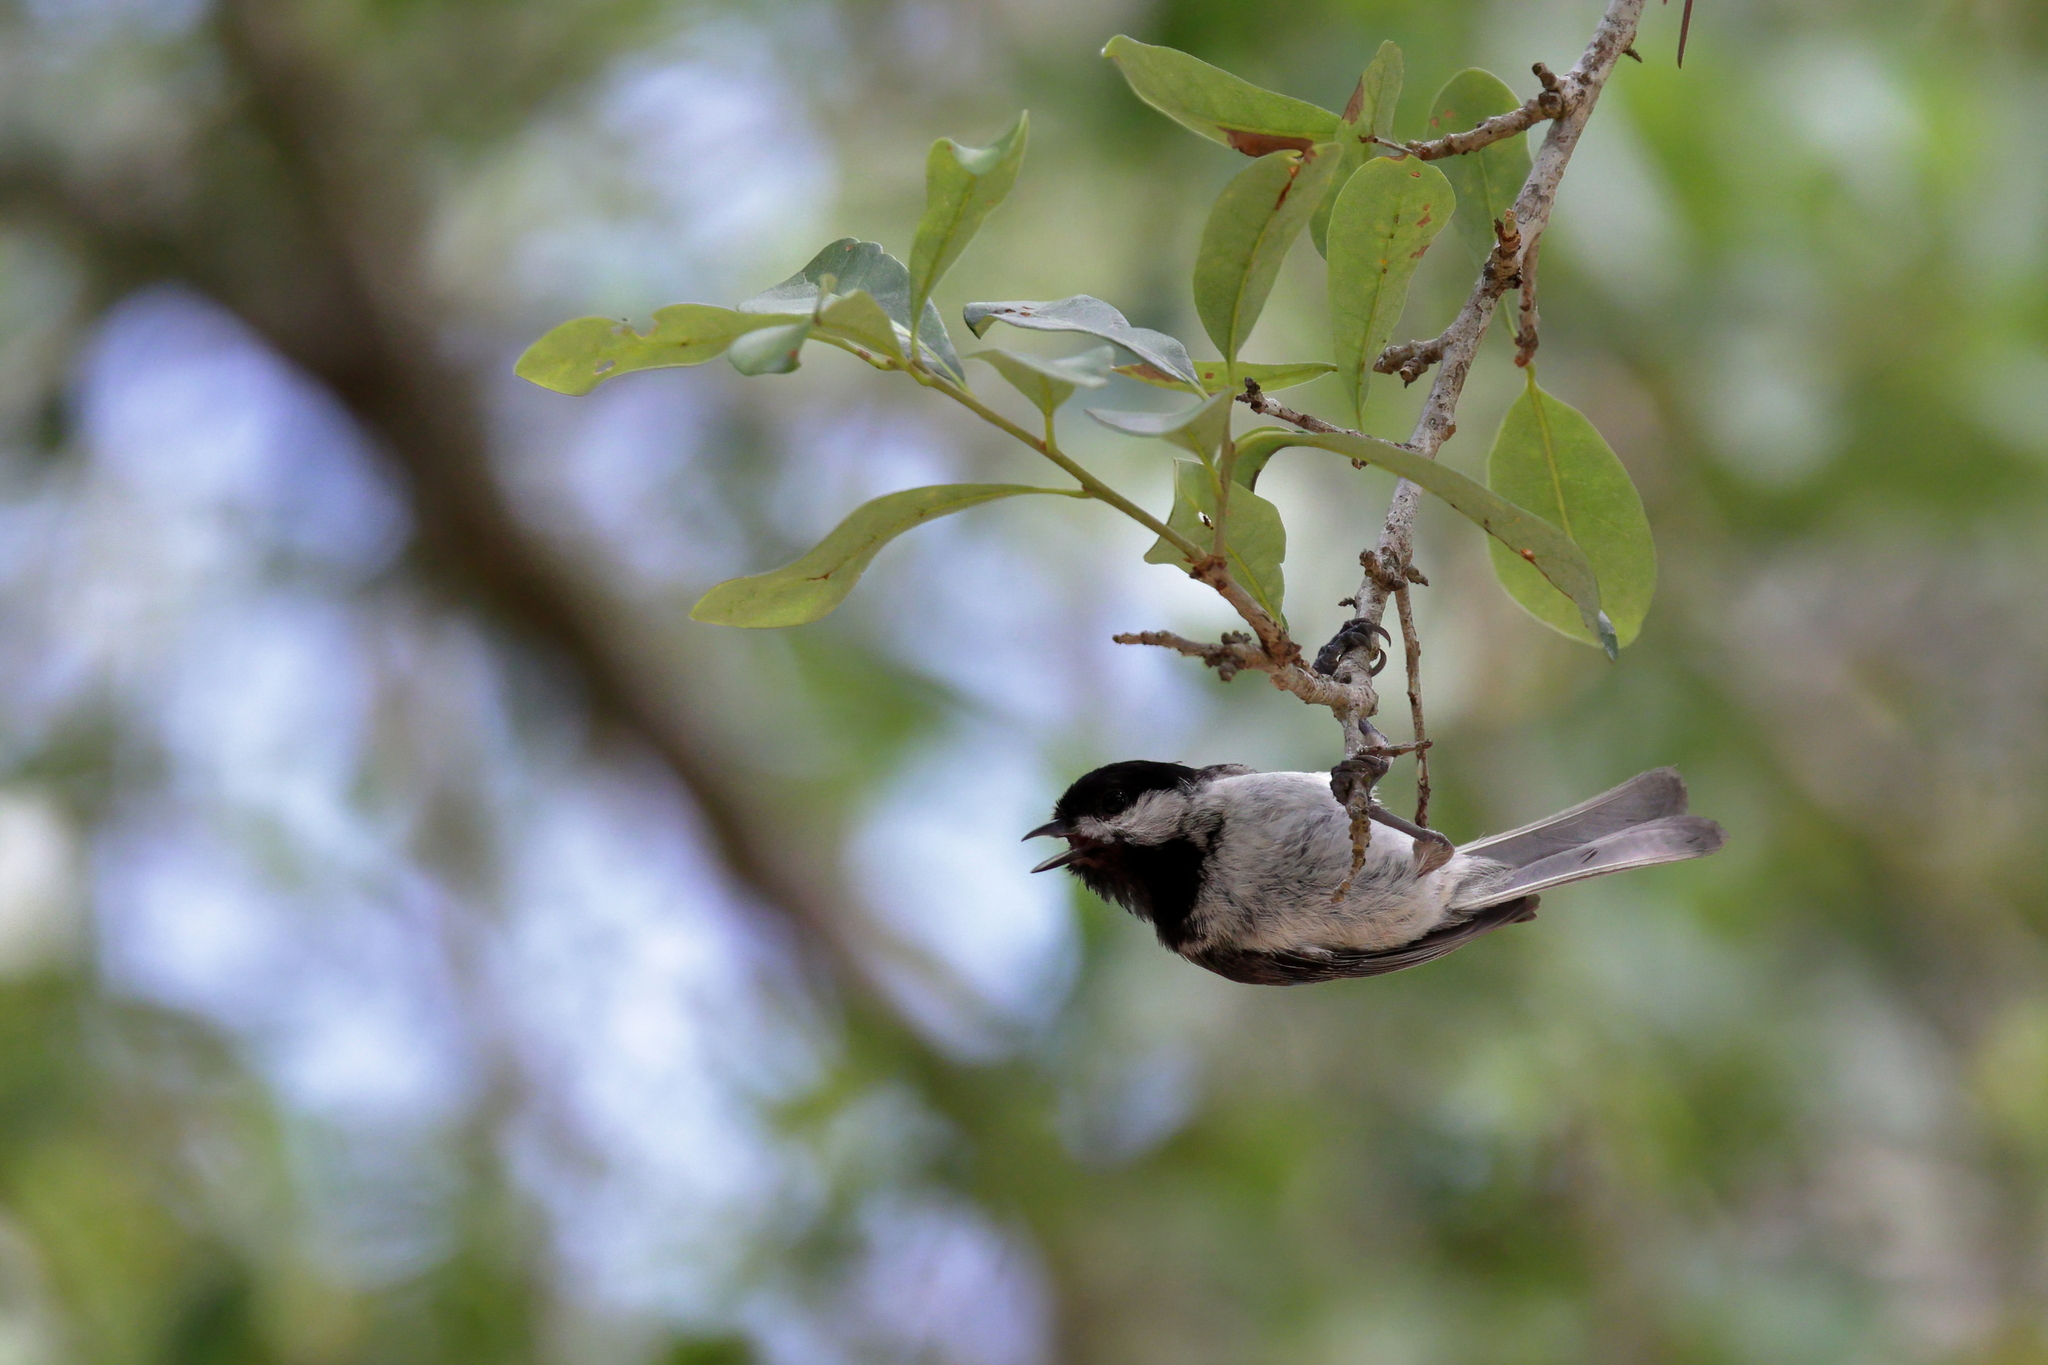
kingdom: Animalia
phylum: Chordata
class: Aves
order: Passeriformes
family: Paridae
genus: Poecile
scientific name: Poecile carolinensis
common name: Carolina chickadee
